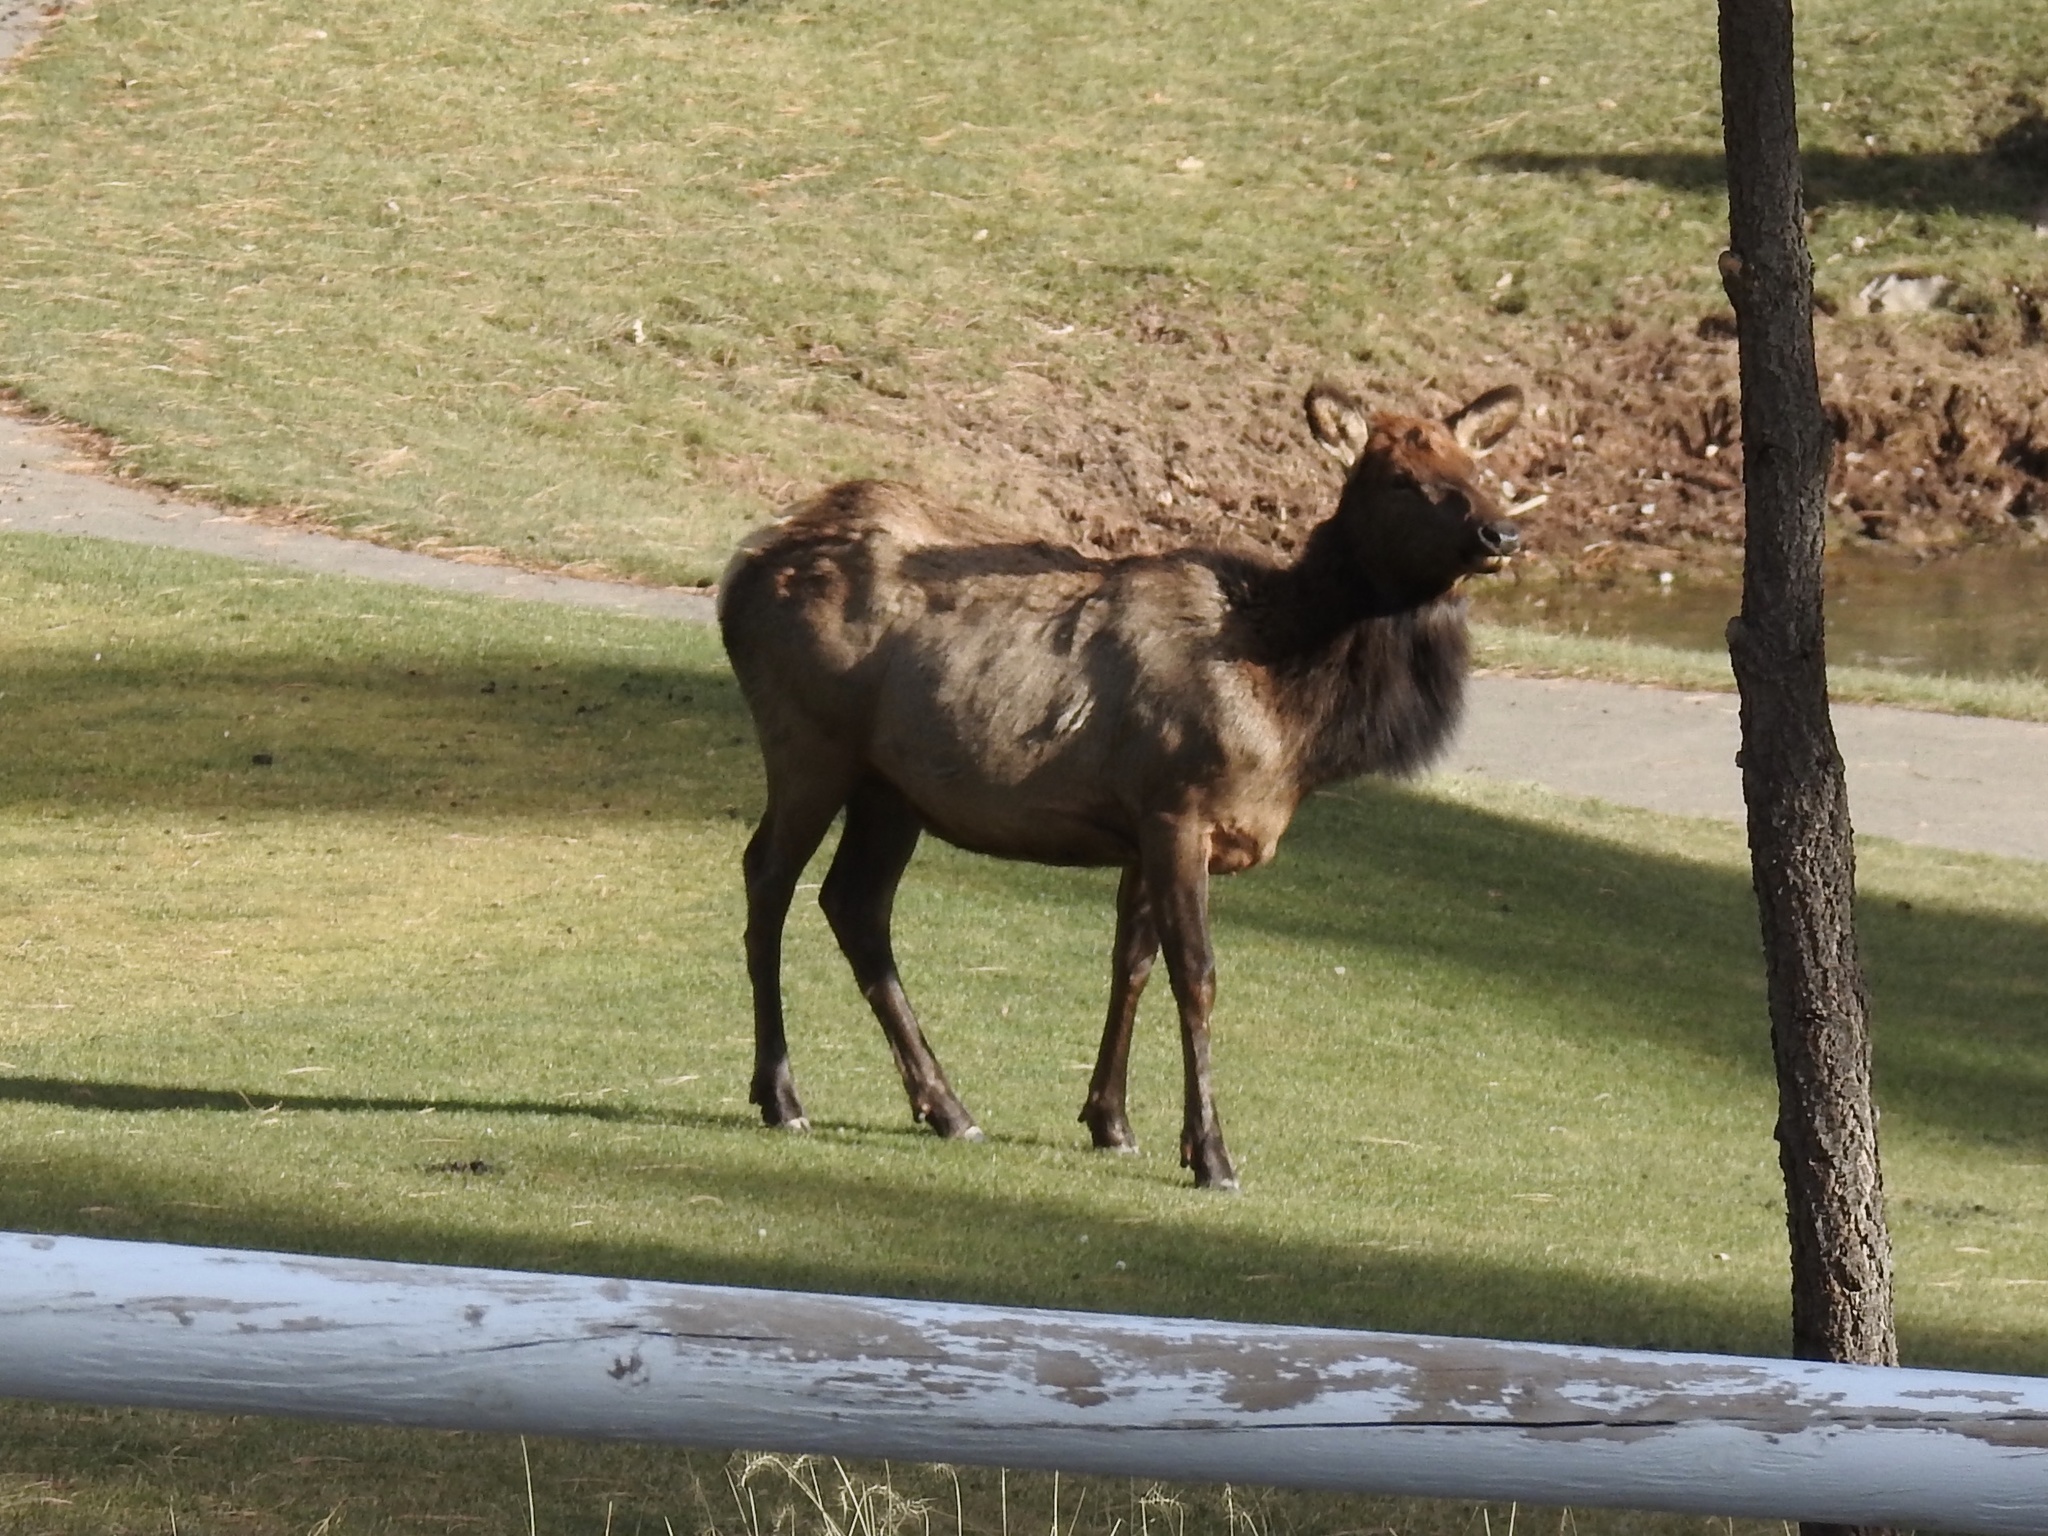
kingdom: Animalia
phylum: Chordata
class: Mammalia
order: Artiodactyla
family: Cervidae
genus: Cervus
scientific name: Cervus elaphus
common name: Red deer
